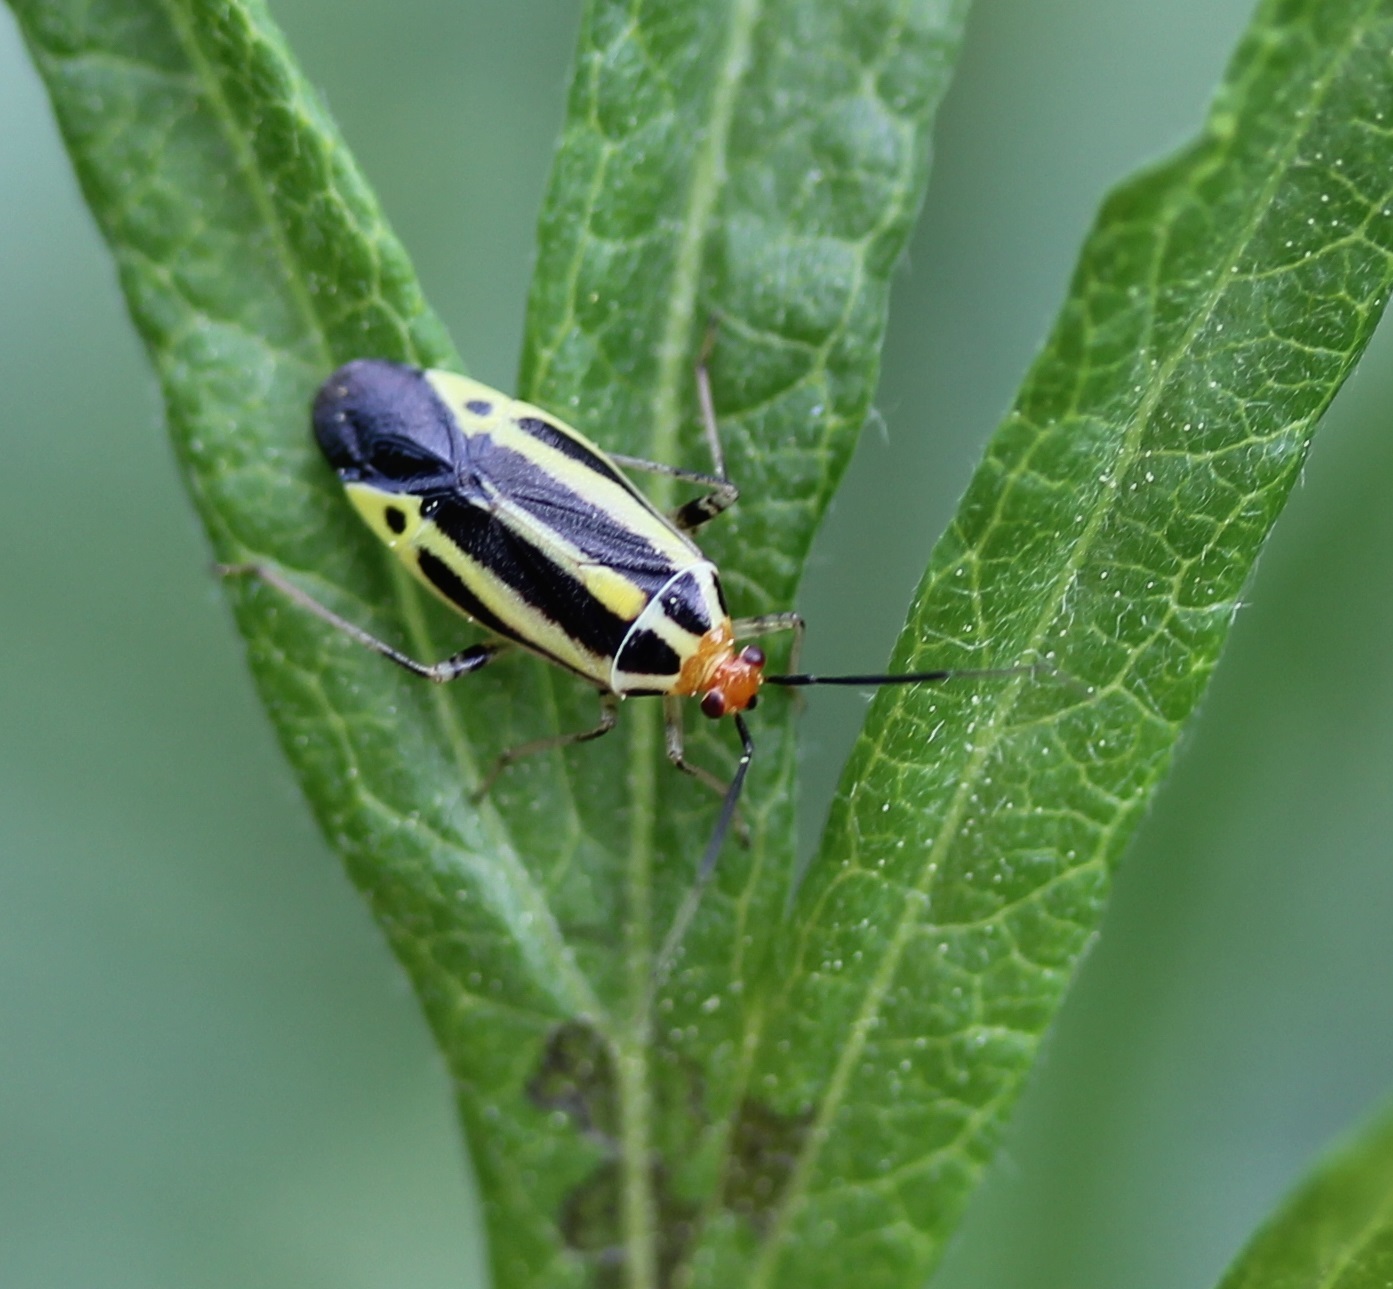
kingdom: Animalia
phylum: Arthropoda
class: Insecta
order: Hemiptera
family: Miridae
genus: Poecilocapsus
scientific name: Poecilocapsus lineatus
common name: Four-lined plant bug
